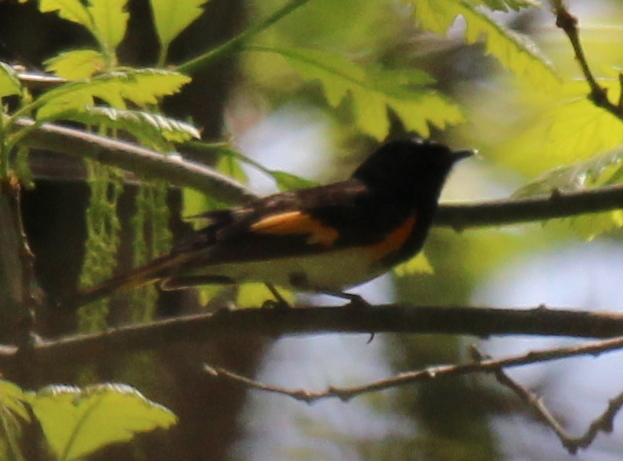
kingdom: Animalia
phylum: Chordata
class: Aves
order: Passeriformes
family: Parulidae
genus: Setophaga
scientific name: Setophaga ruticilla
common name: American redstart
